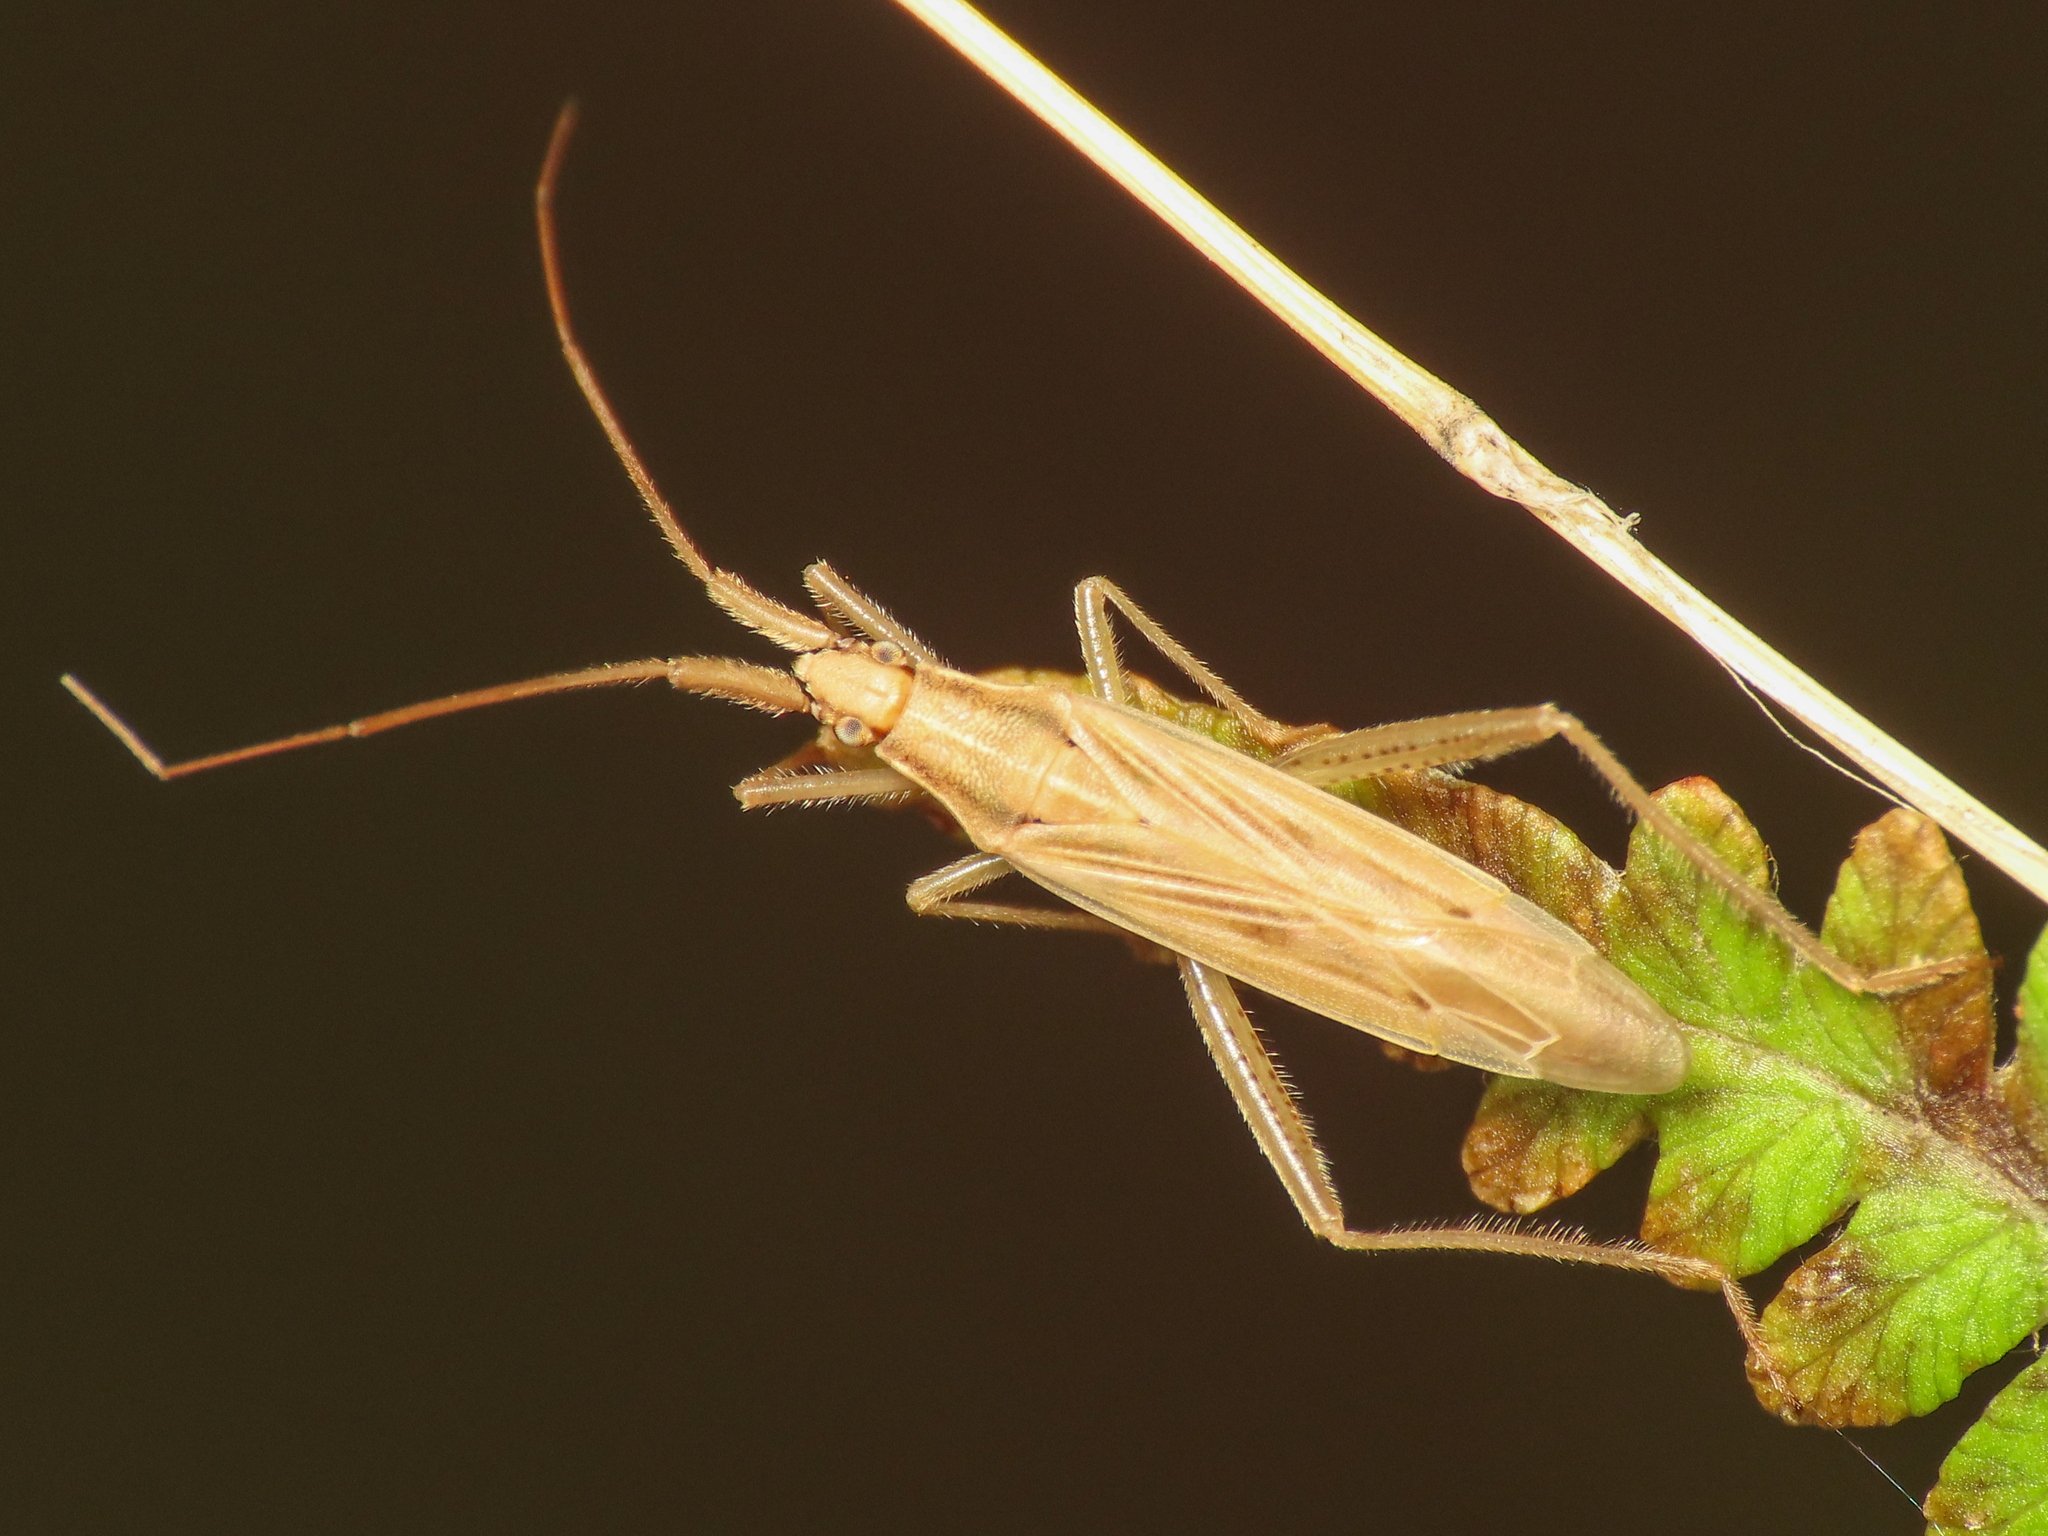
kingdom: Animalia
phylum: Arthropoda
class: Insecta
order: Hemiptera
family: Miridae
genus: Stenodema
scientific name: Stenodema laevigata
